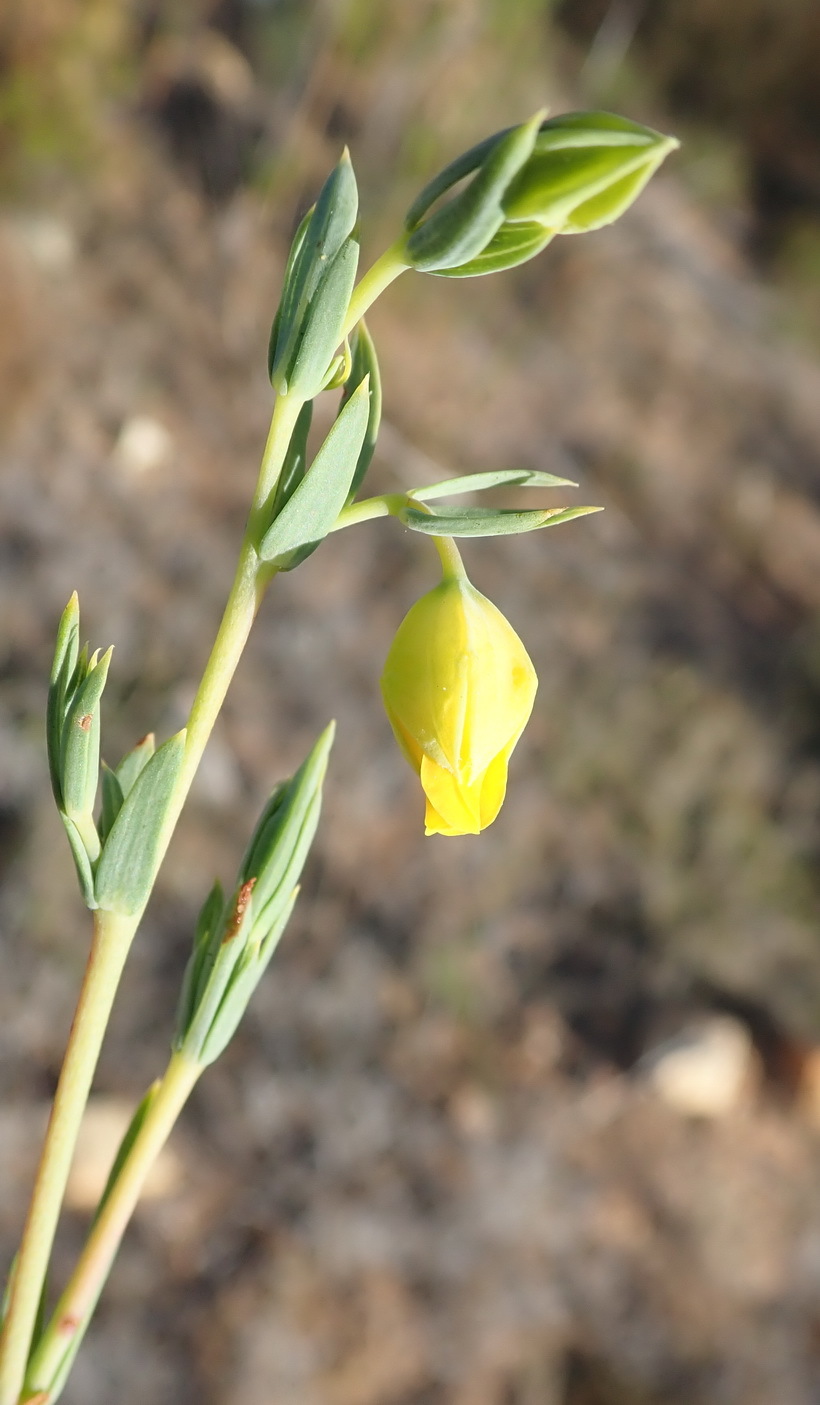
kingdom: Plantae
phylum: Tracheophyta
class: Magnoliopsida
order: Malvales
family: Malvaceae
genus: Hermannia
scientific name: Hermannia
